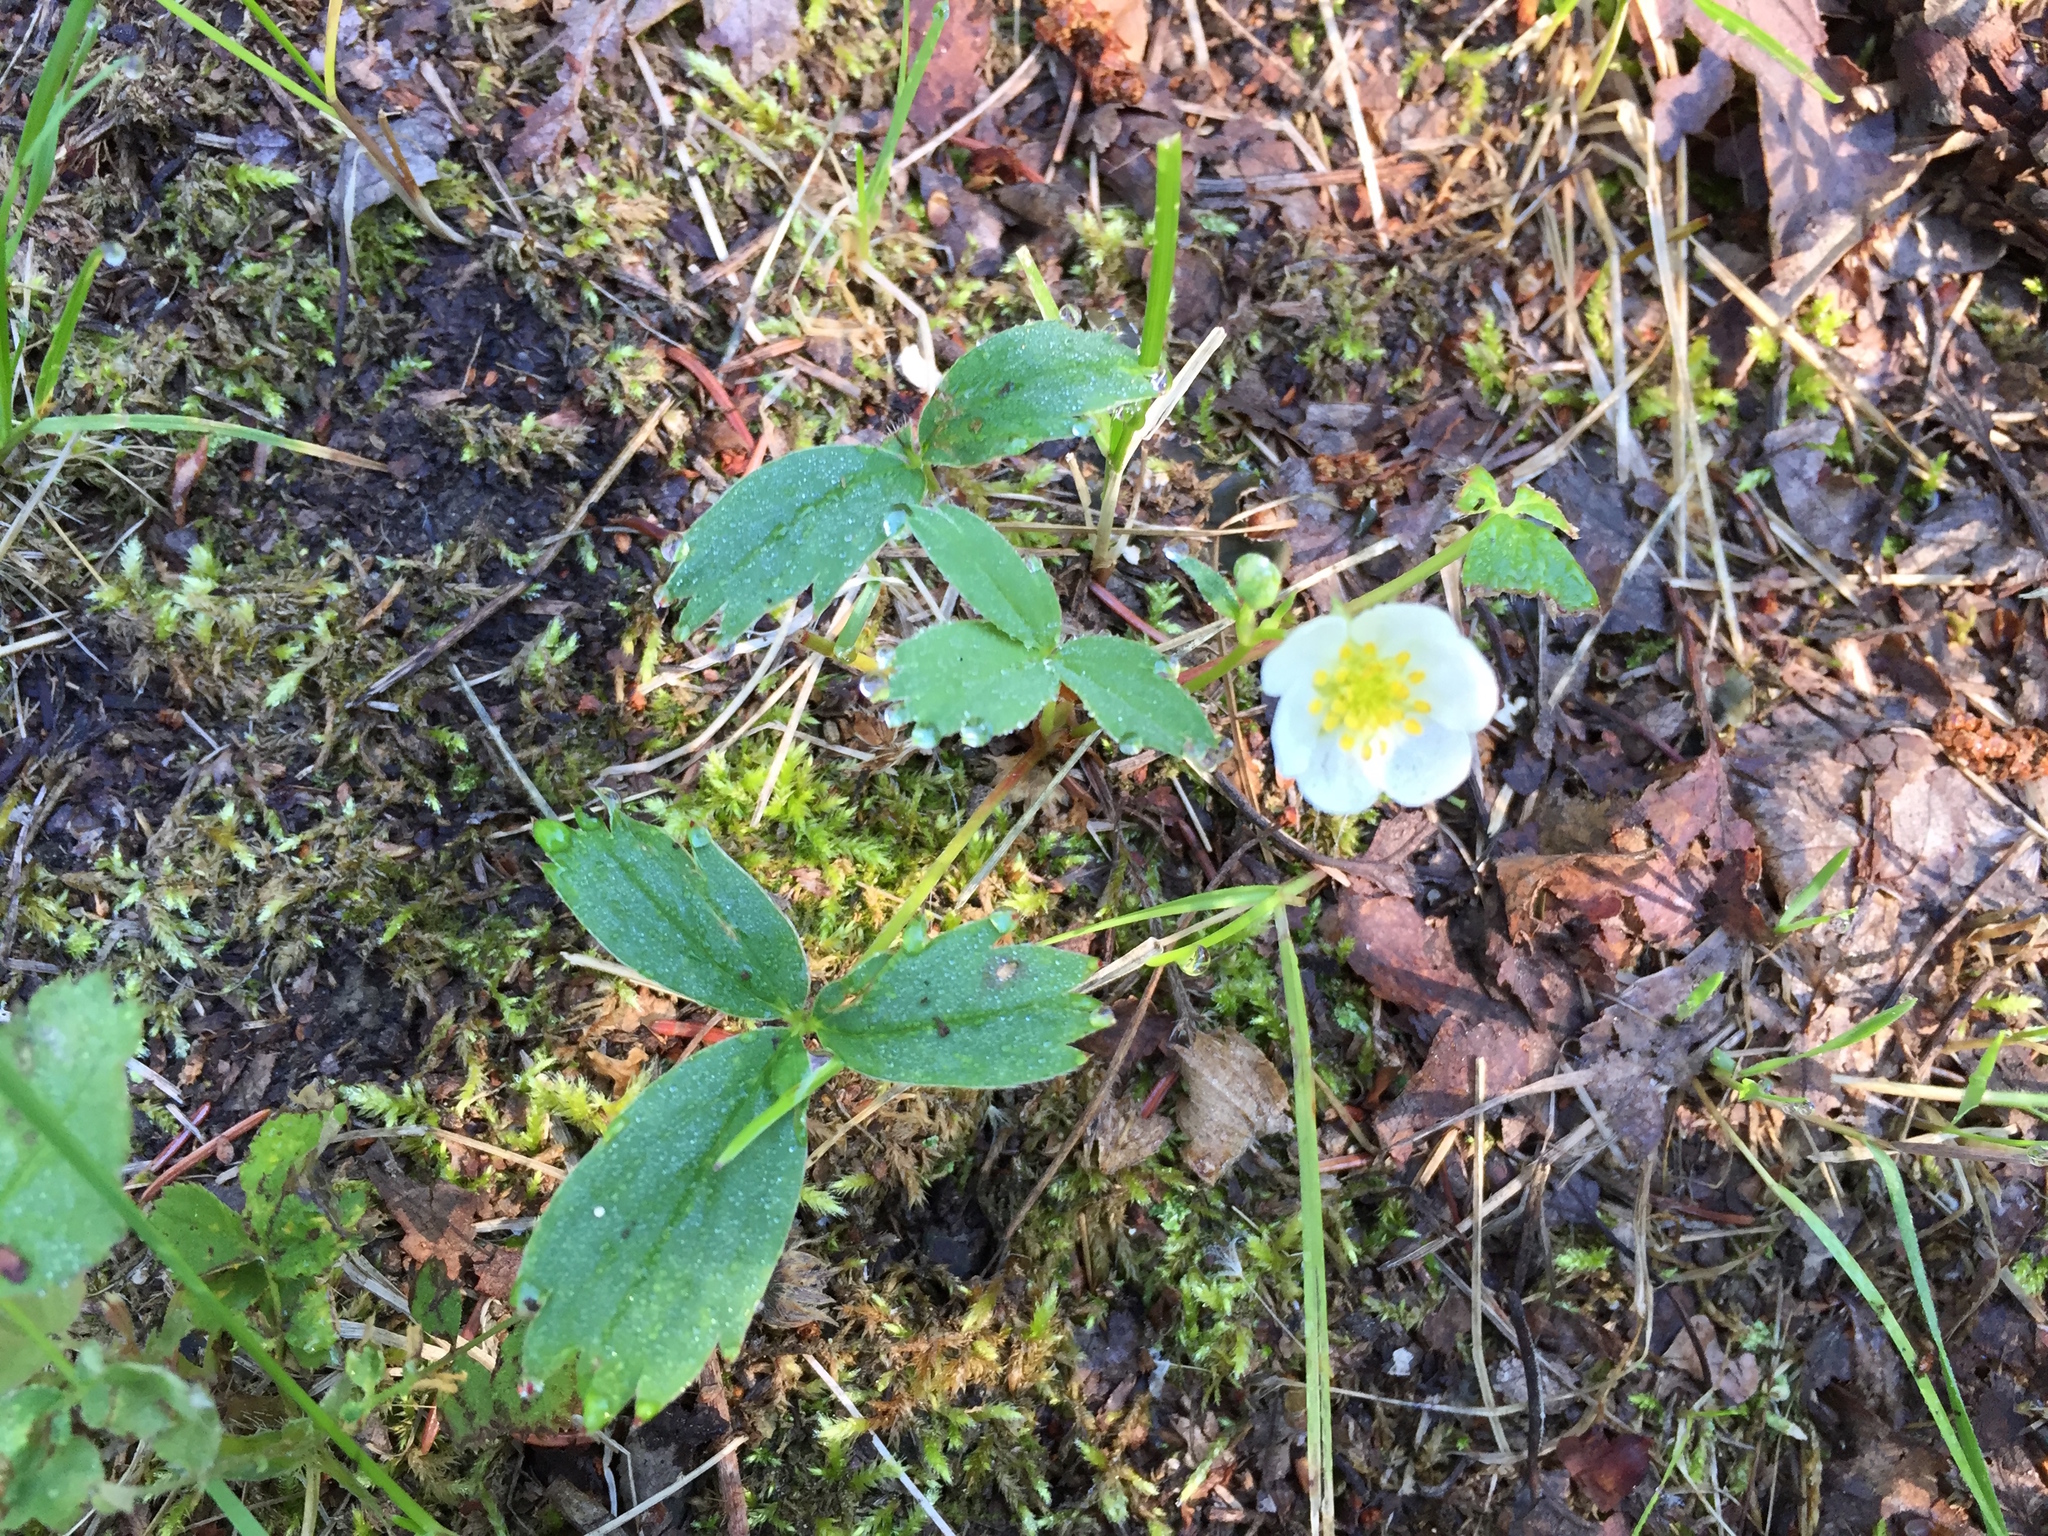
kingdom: Plantae
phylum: Tracheophyta
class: Magnoliopsida
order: Rosales
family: Rosaceae
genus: Fragaria
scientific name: Fragaria virginiana
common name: Thickleaved wild strawberry
